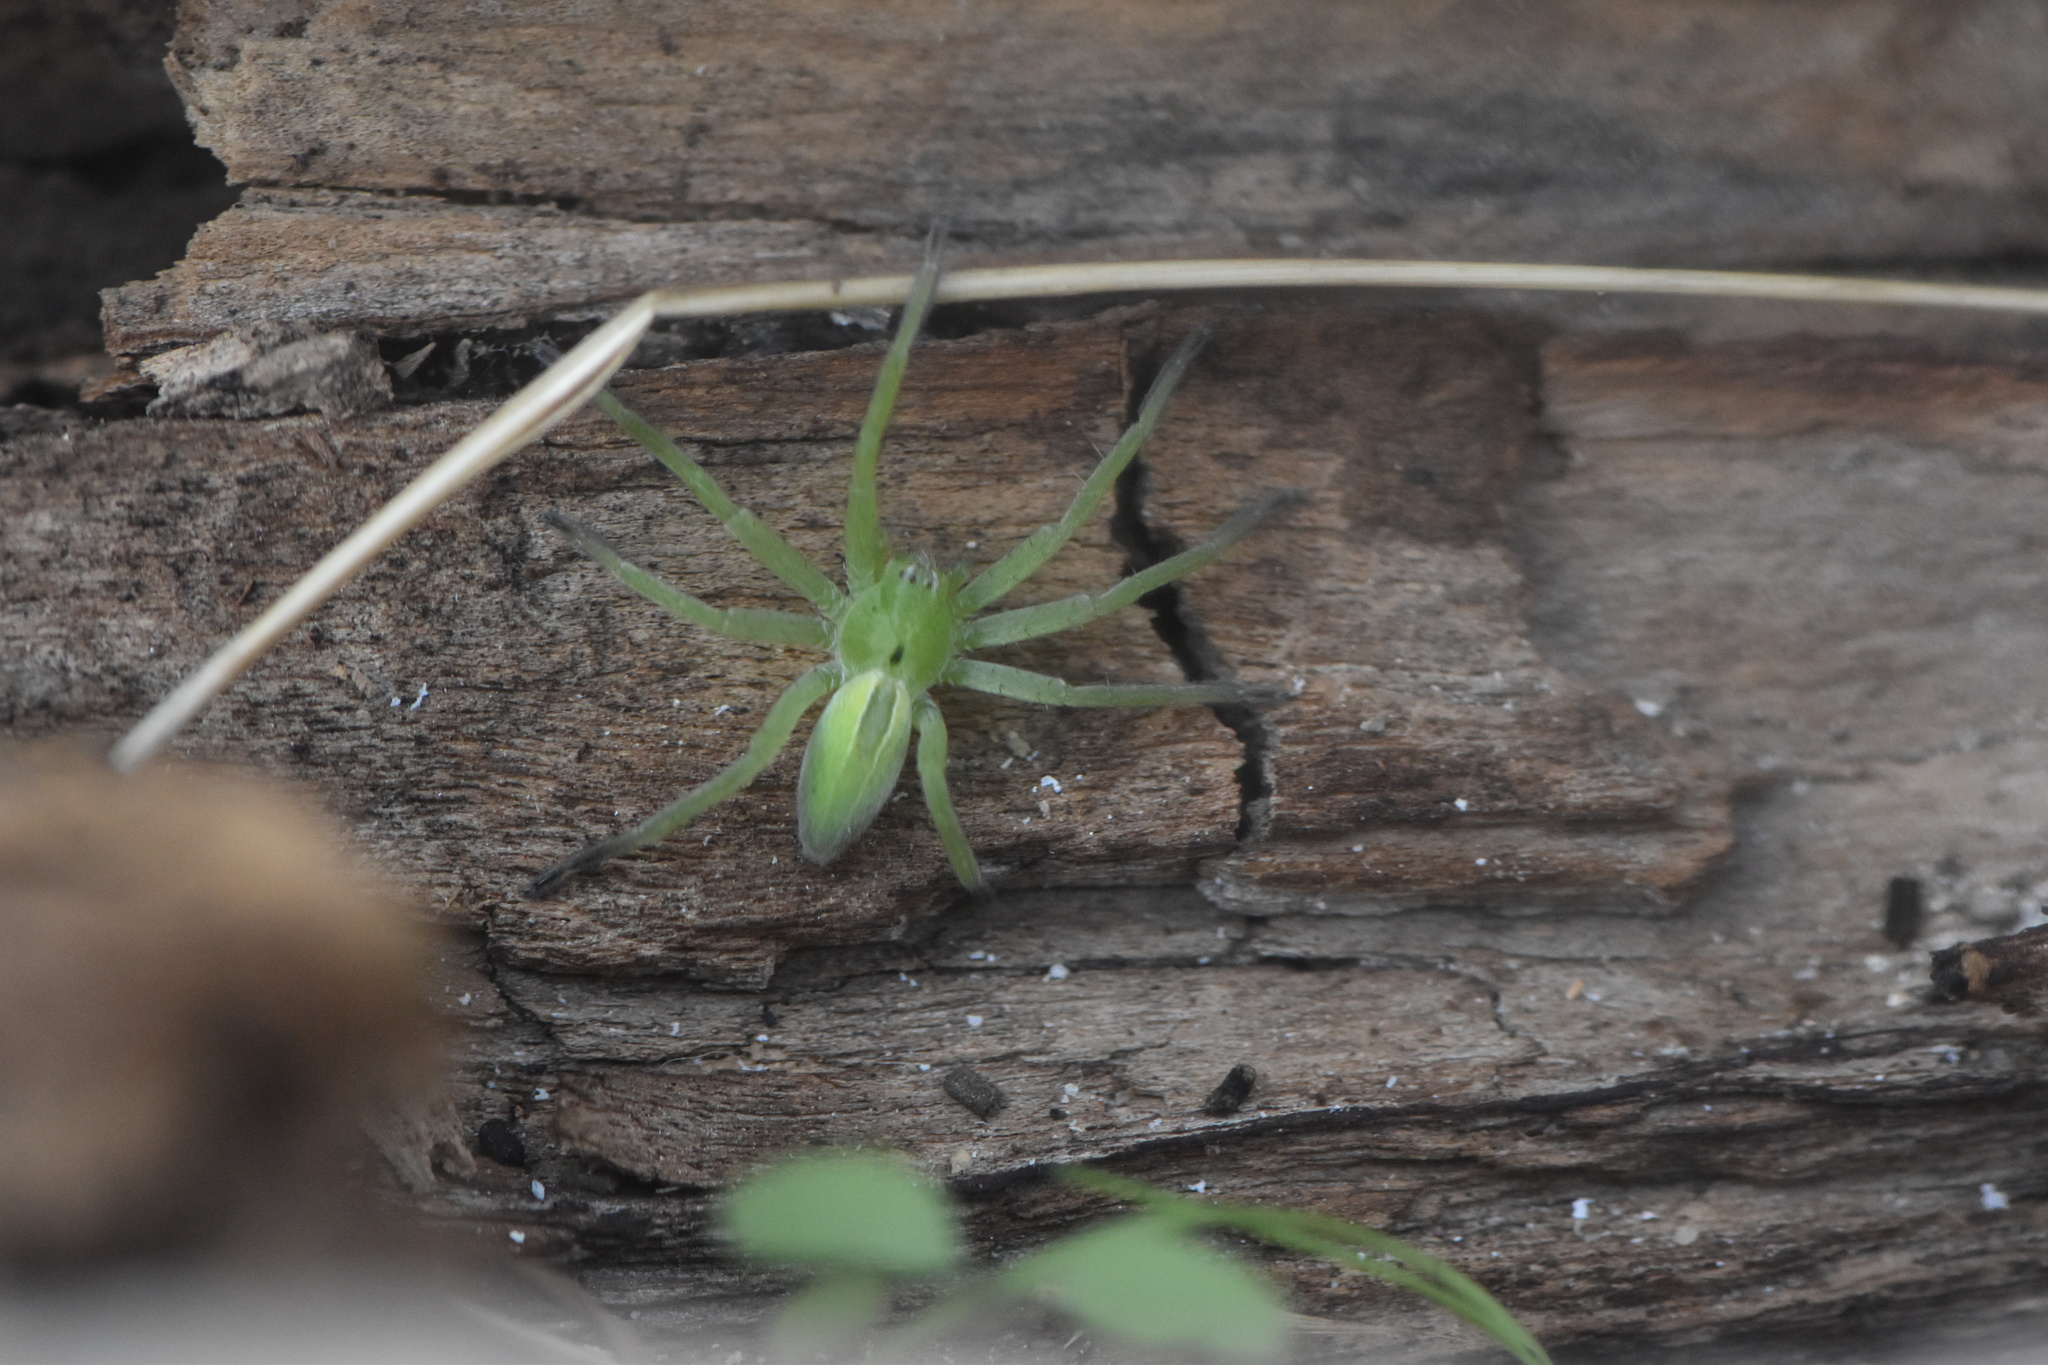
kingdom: Animalia
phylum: Arthropoda
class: Arachnida
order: Araneae
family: Sparassidae
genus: Micrommata
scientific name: Micrommata ligurina
